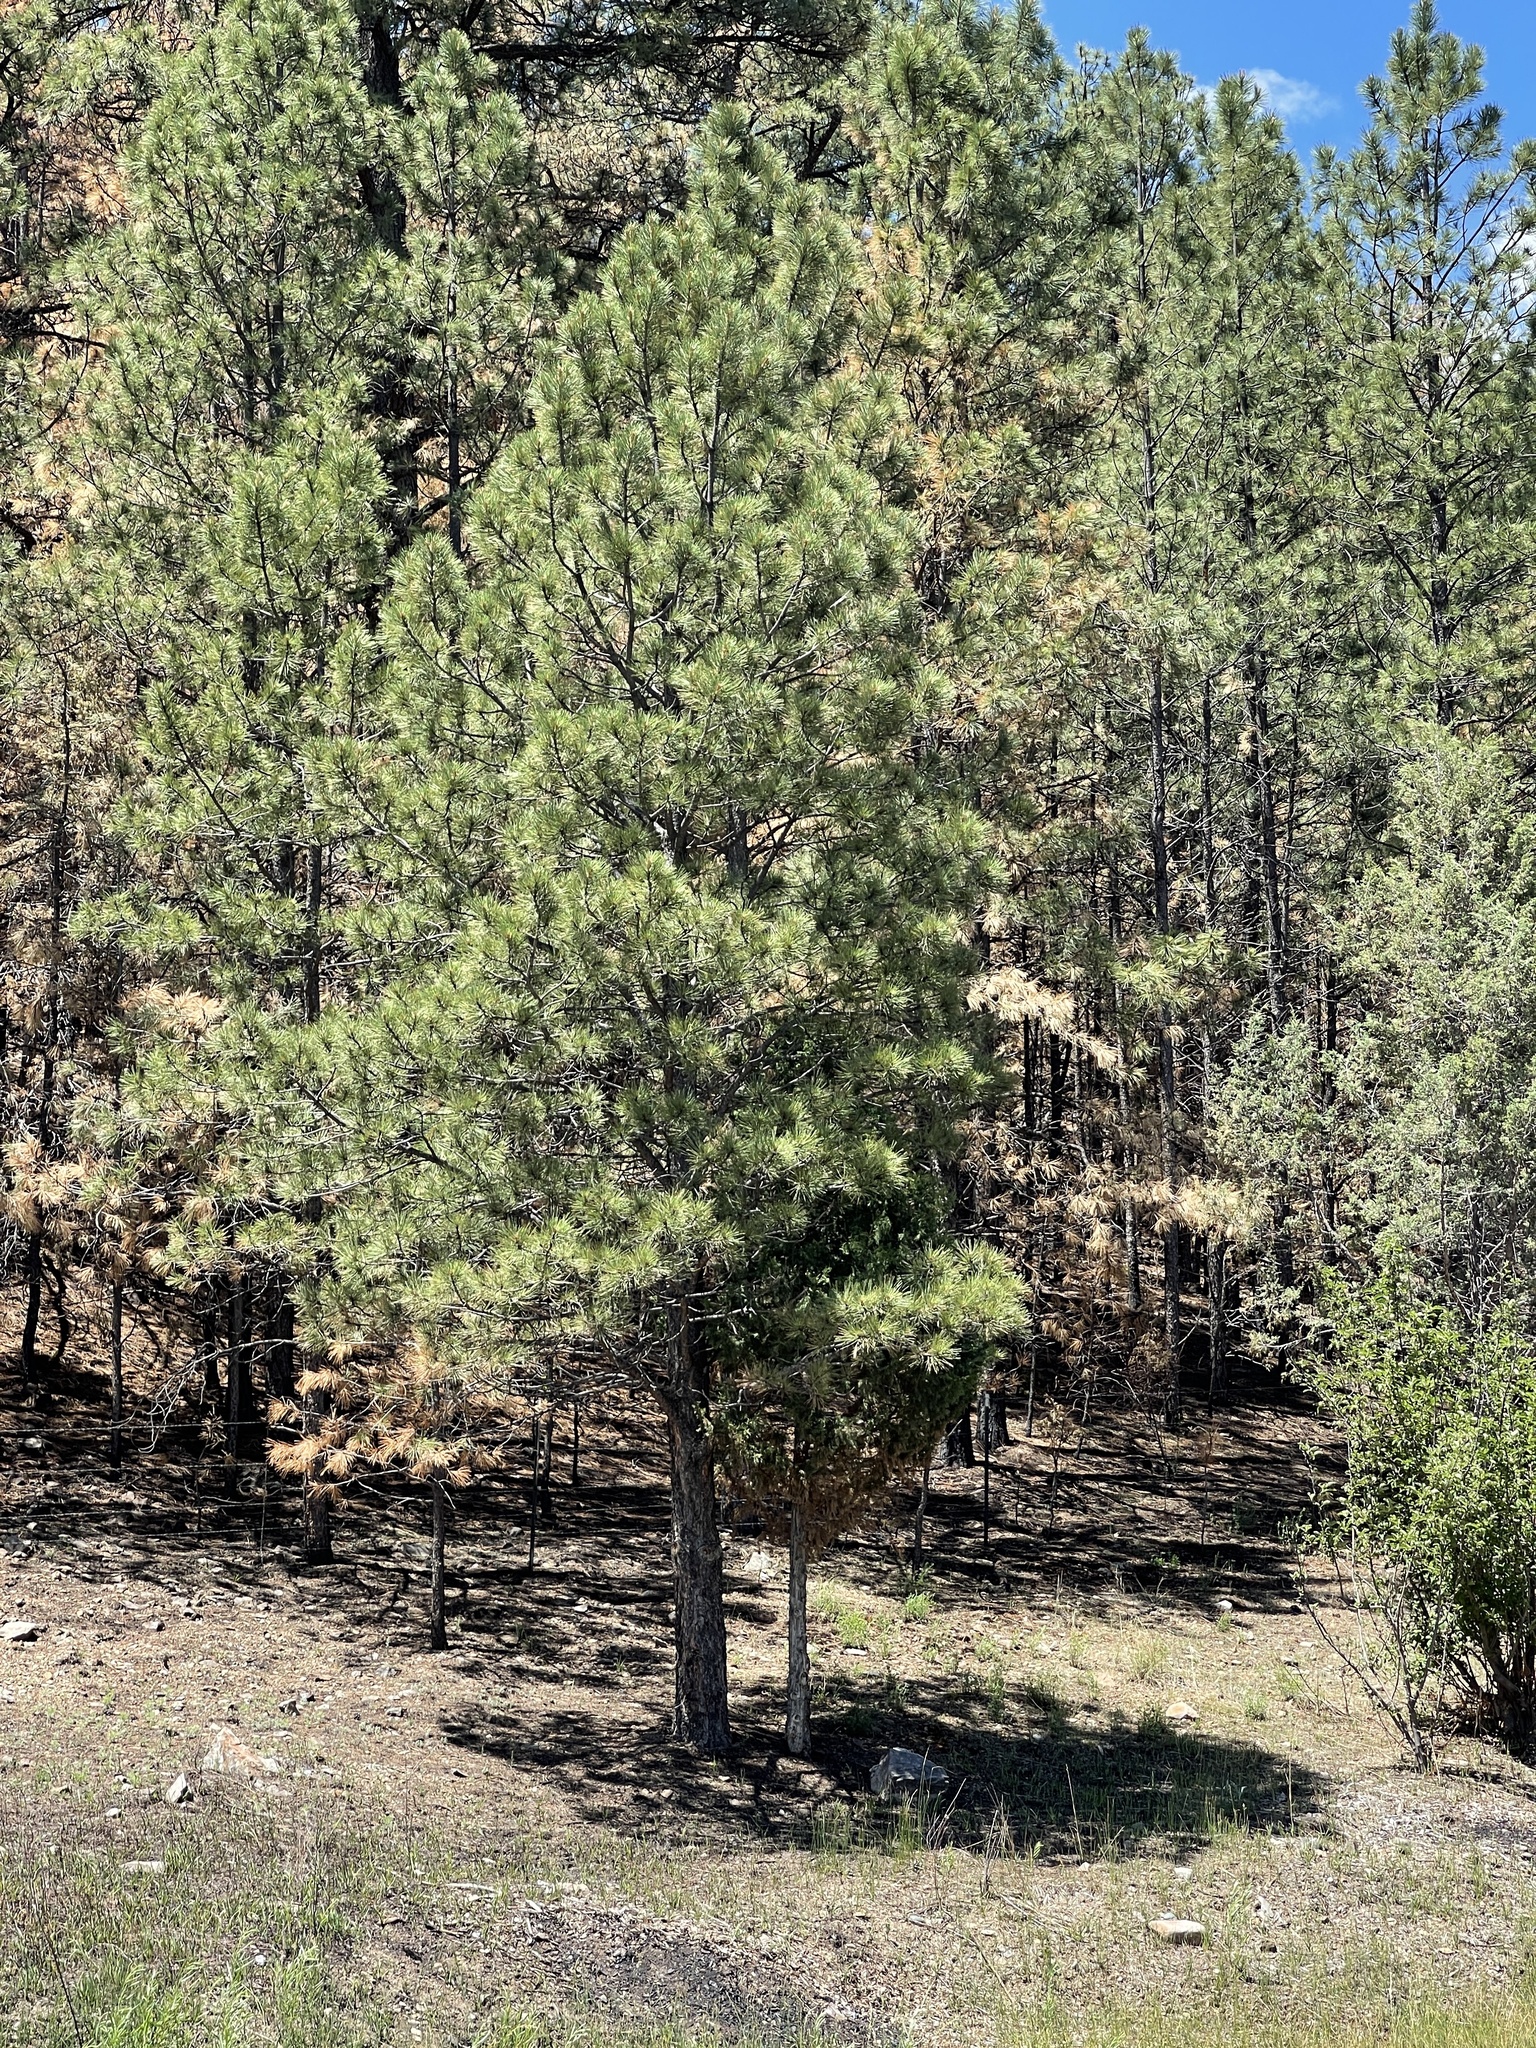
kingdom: Plantae
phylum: Tracheophyta
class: Pinopsida
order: Pinales
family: Pinaceae
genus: Pinus
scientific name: Pinus ponderosa
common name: Western yellow-pine
